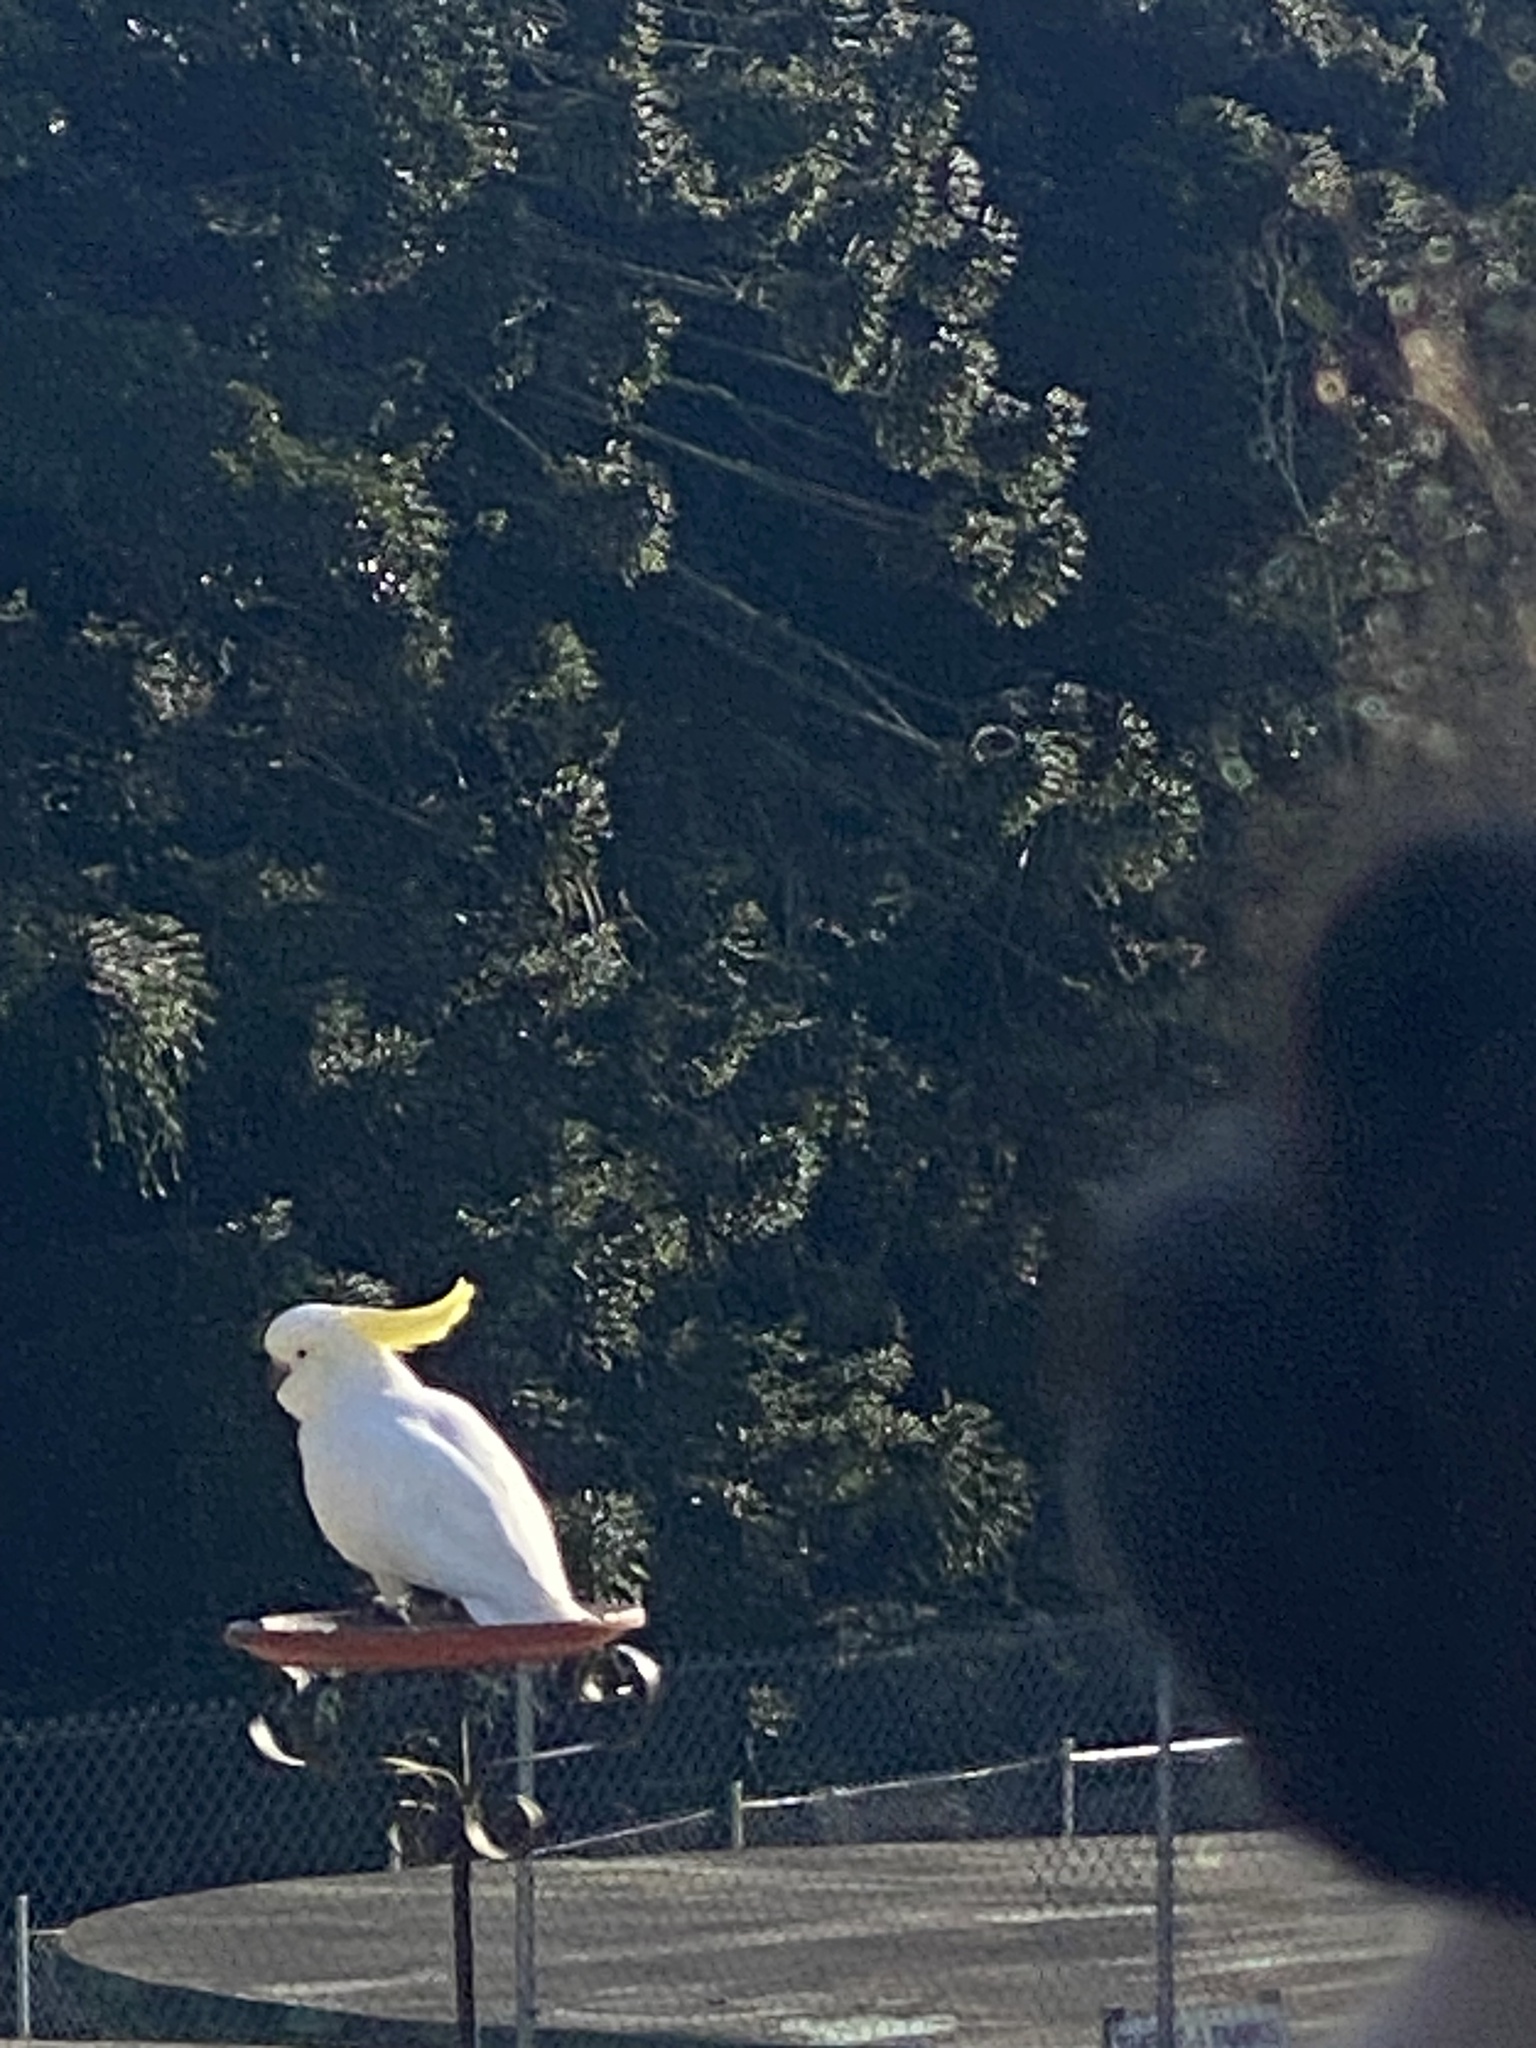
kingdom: Animalia
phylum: Chordata
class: Aves
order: Psittaciformes
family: Psittacidae
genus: Cacatua
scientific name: Cacatua galerita
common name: Sulphur-crested cockatoo
